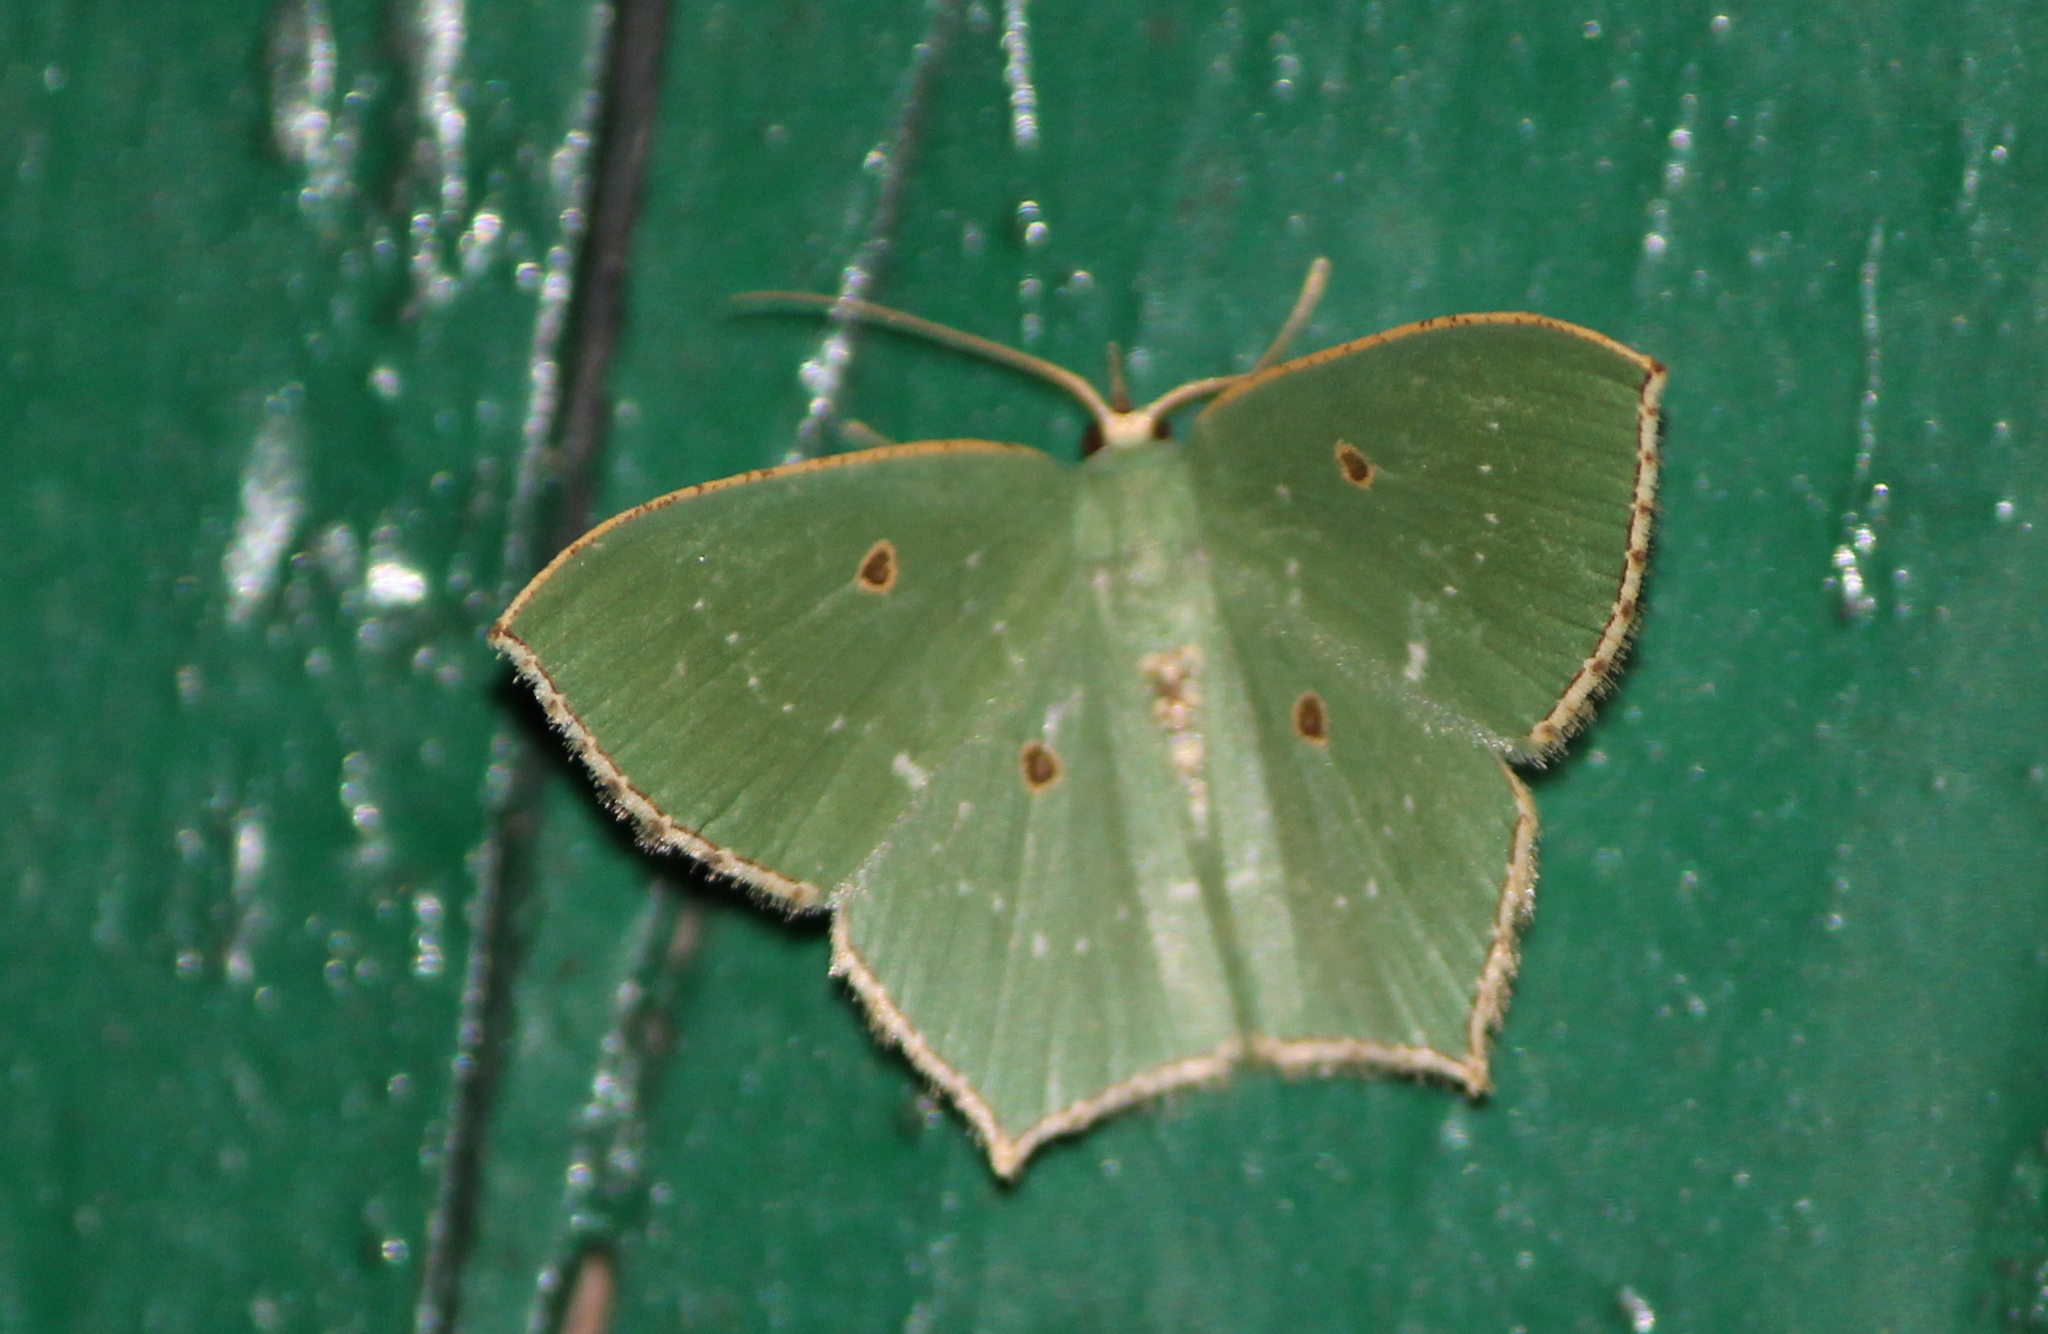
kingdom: Animalia
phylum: Arthropoda
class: Insecta
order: Lepidoptera
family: Geometridae
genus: Cyclothea
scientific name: Cyclothea disjuncta
